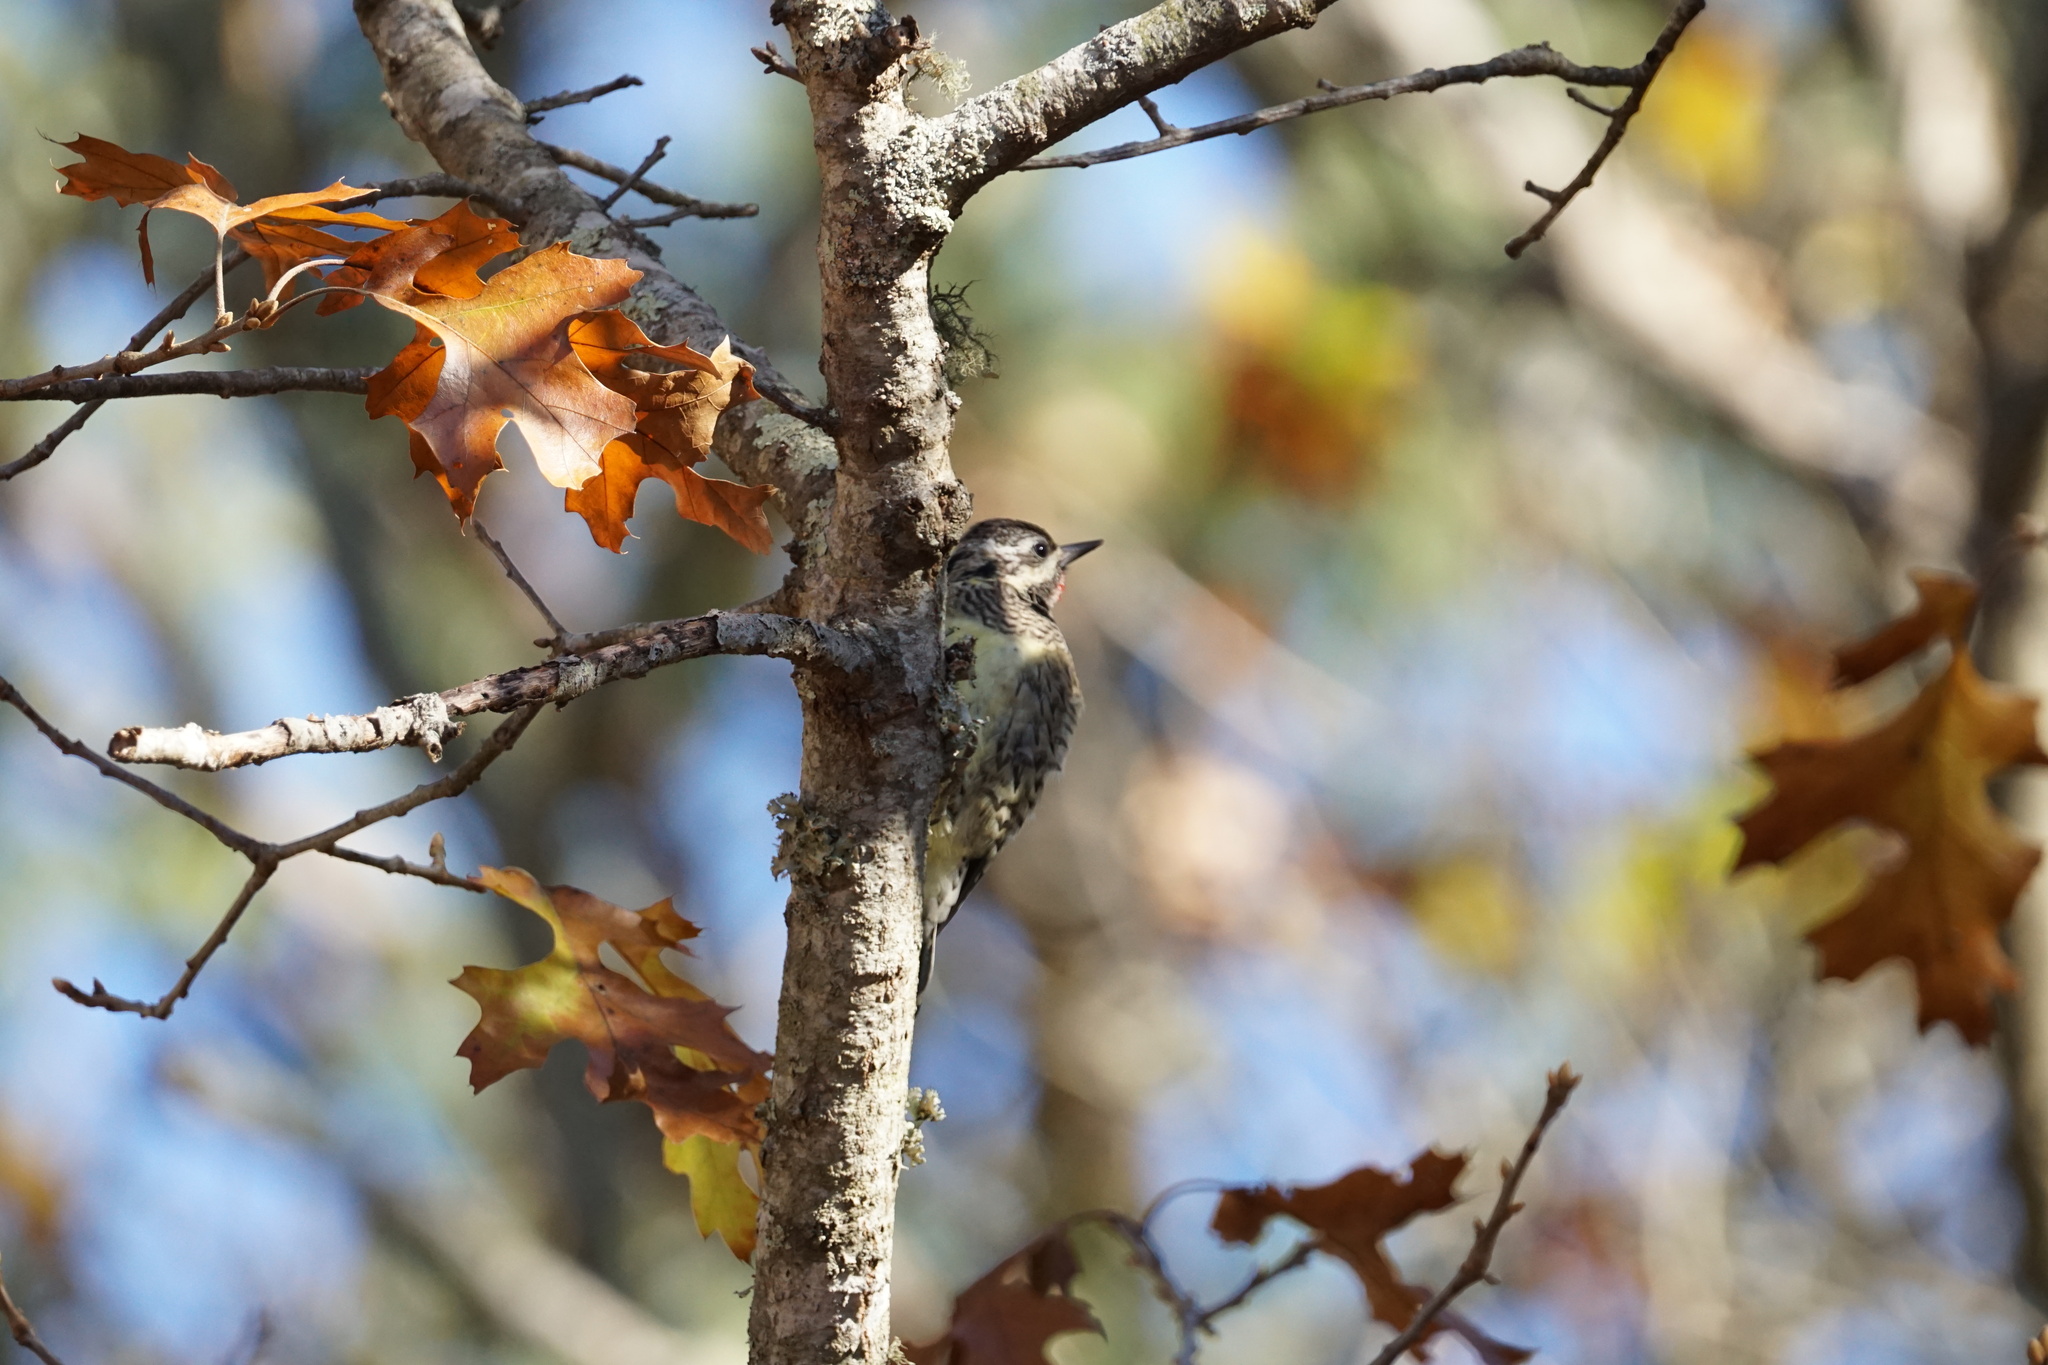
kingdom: Animalia
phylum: Chordata
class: Aves
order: Piciformes
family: Picidae
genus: Sphyrapicus
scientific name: Sphyrapicus varius
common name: Yellow-bellied sapsucker
